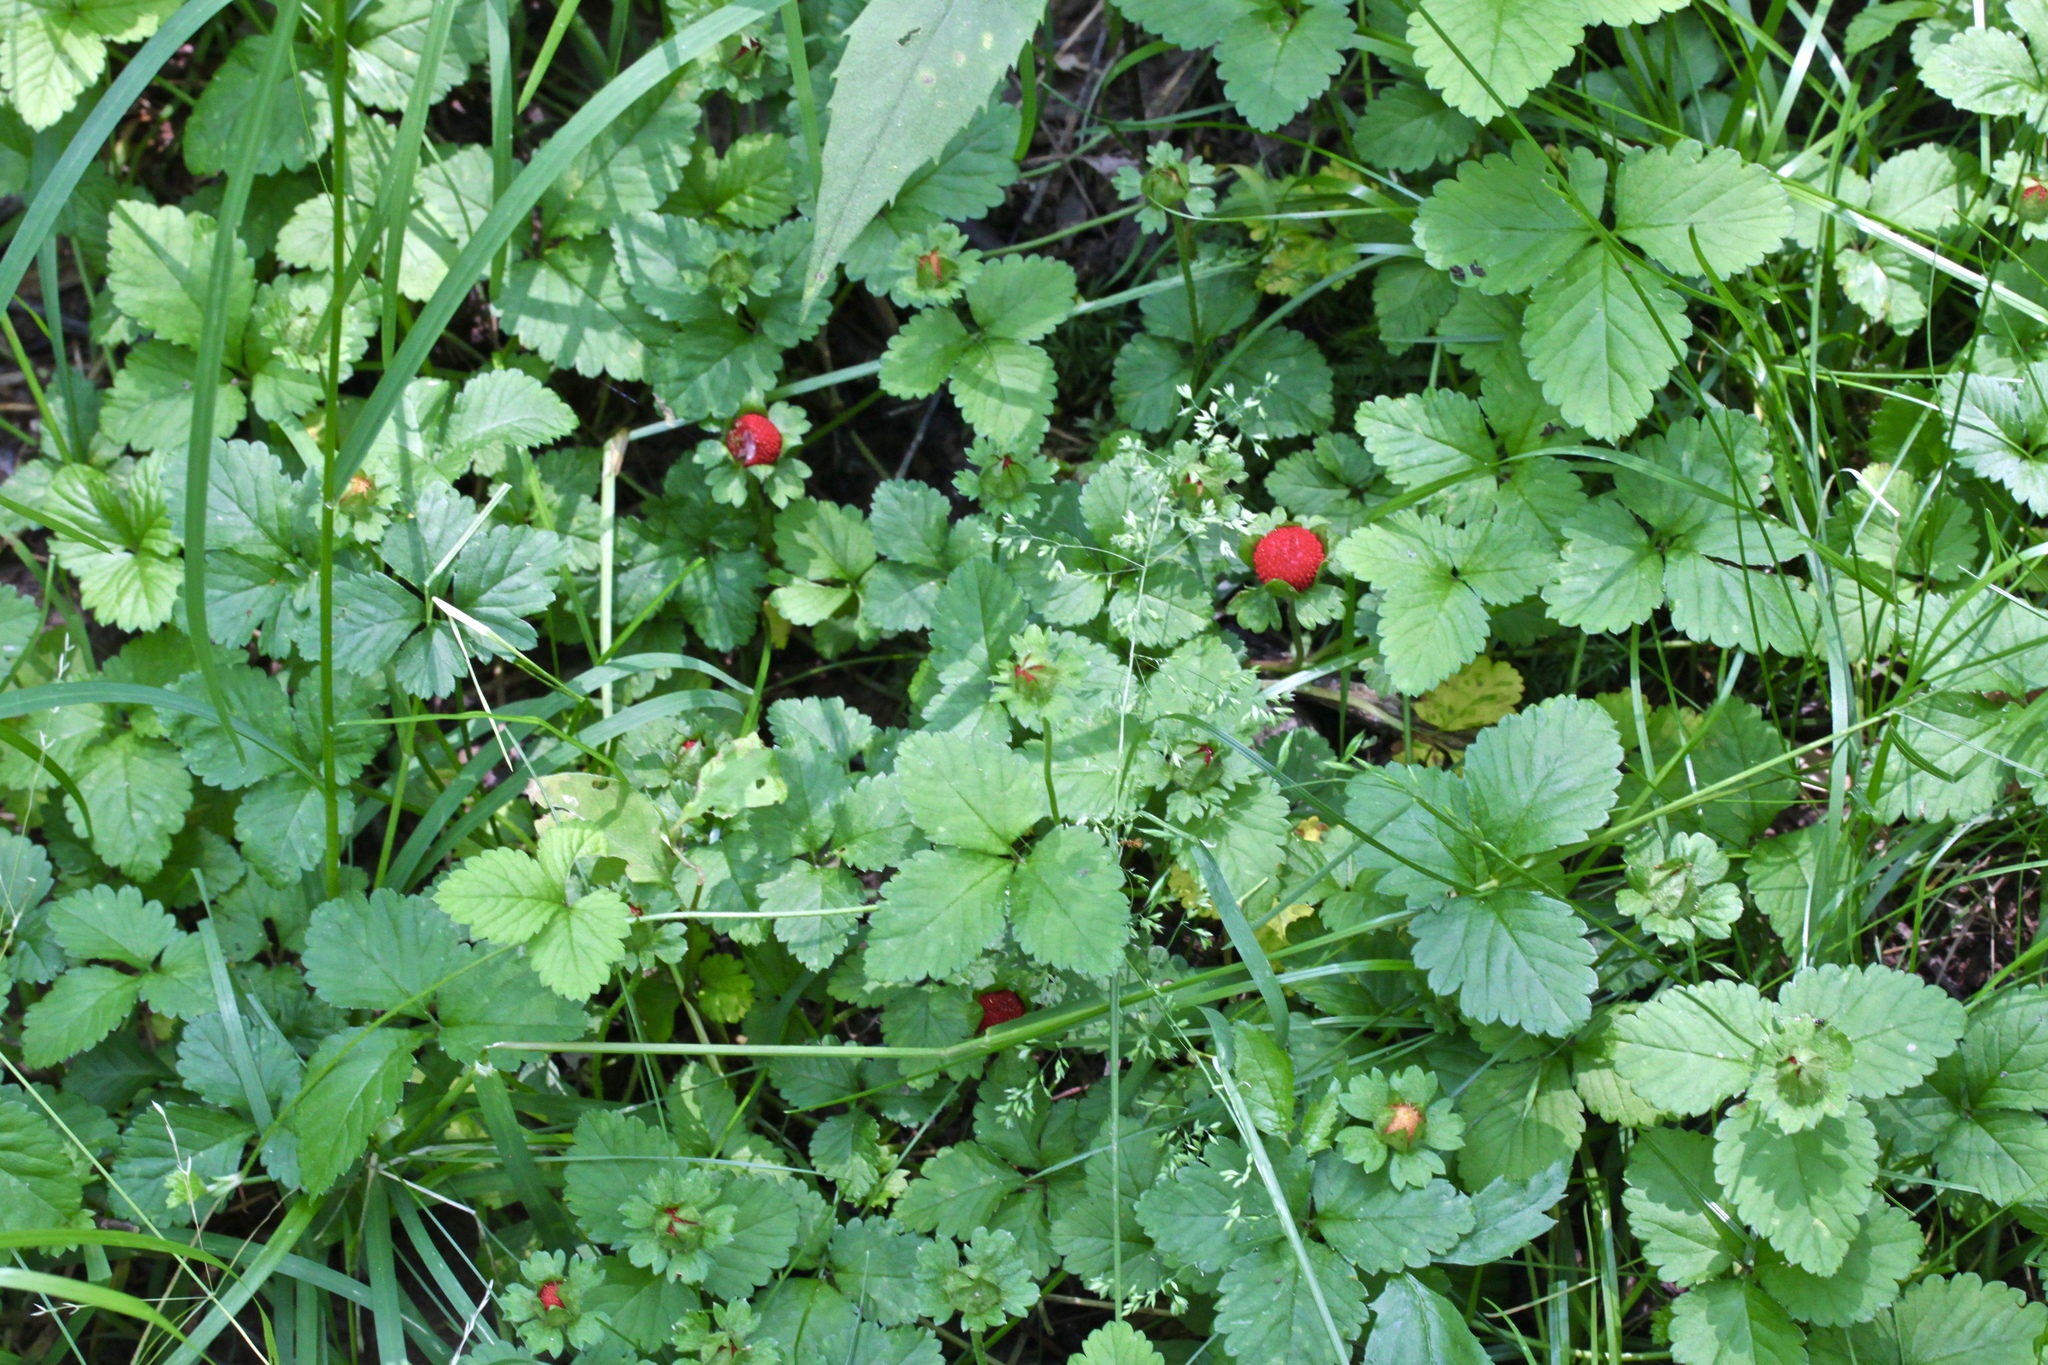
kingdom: Plantae
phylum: Tracheophyta
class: Magnoliopsida
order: Rosales
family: Rosaceae
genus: Potentilla
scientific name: Potentilla indica
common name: Yellow-flowered strawberry
